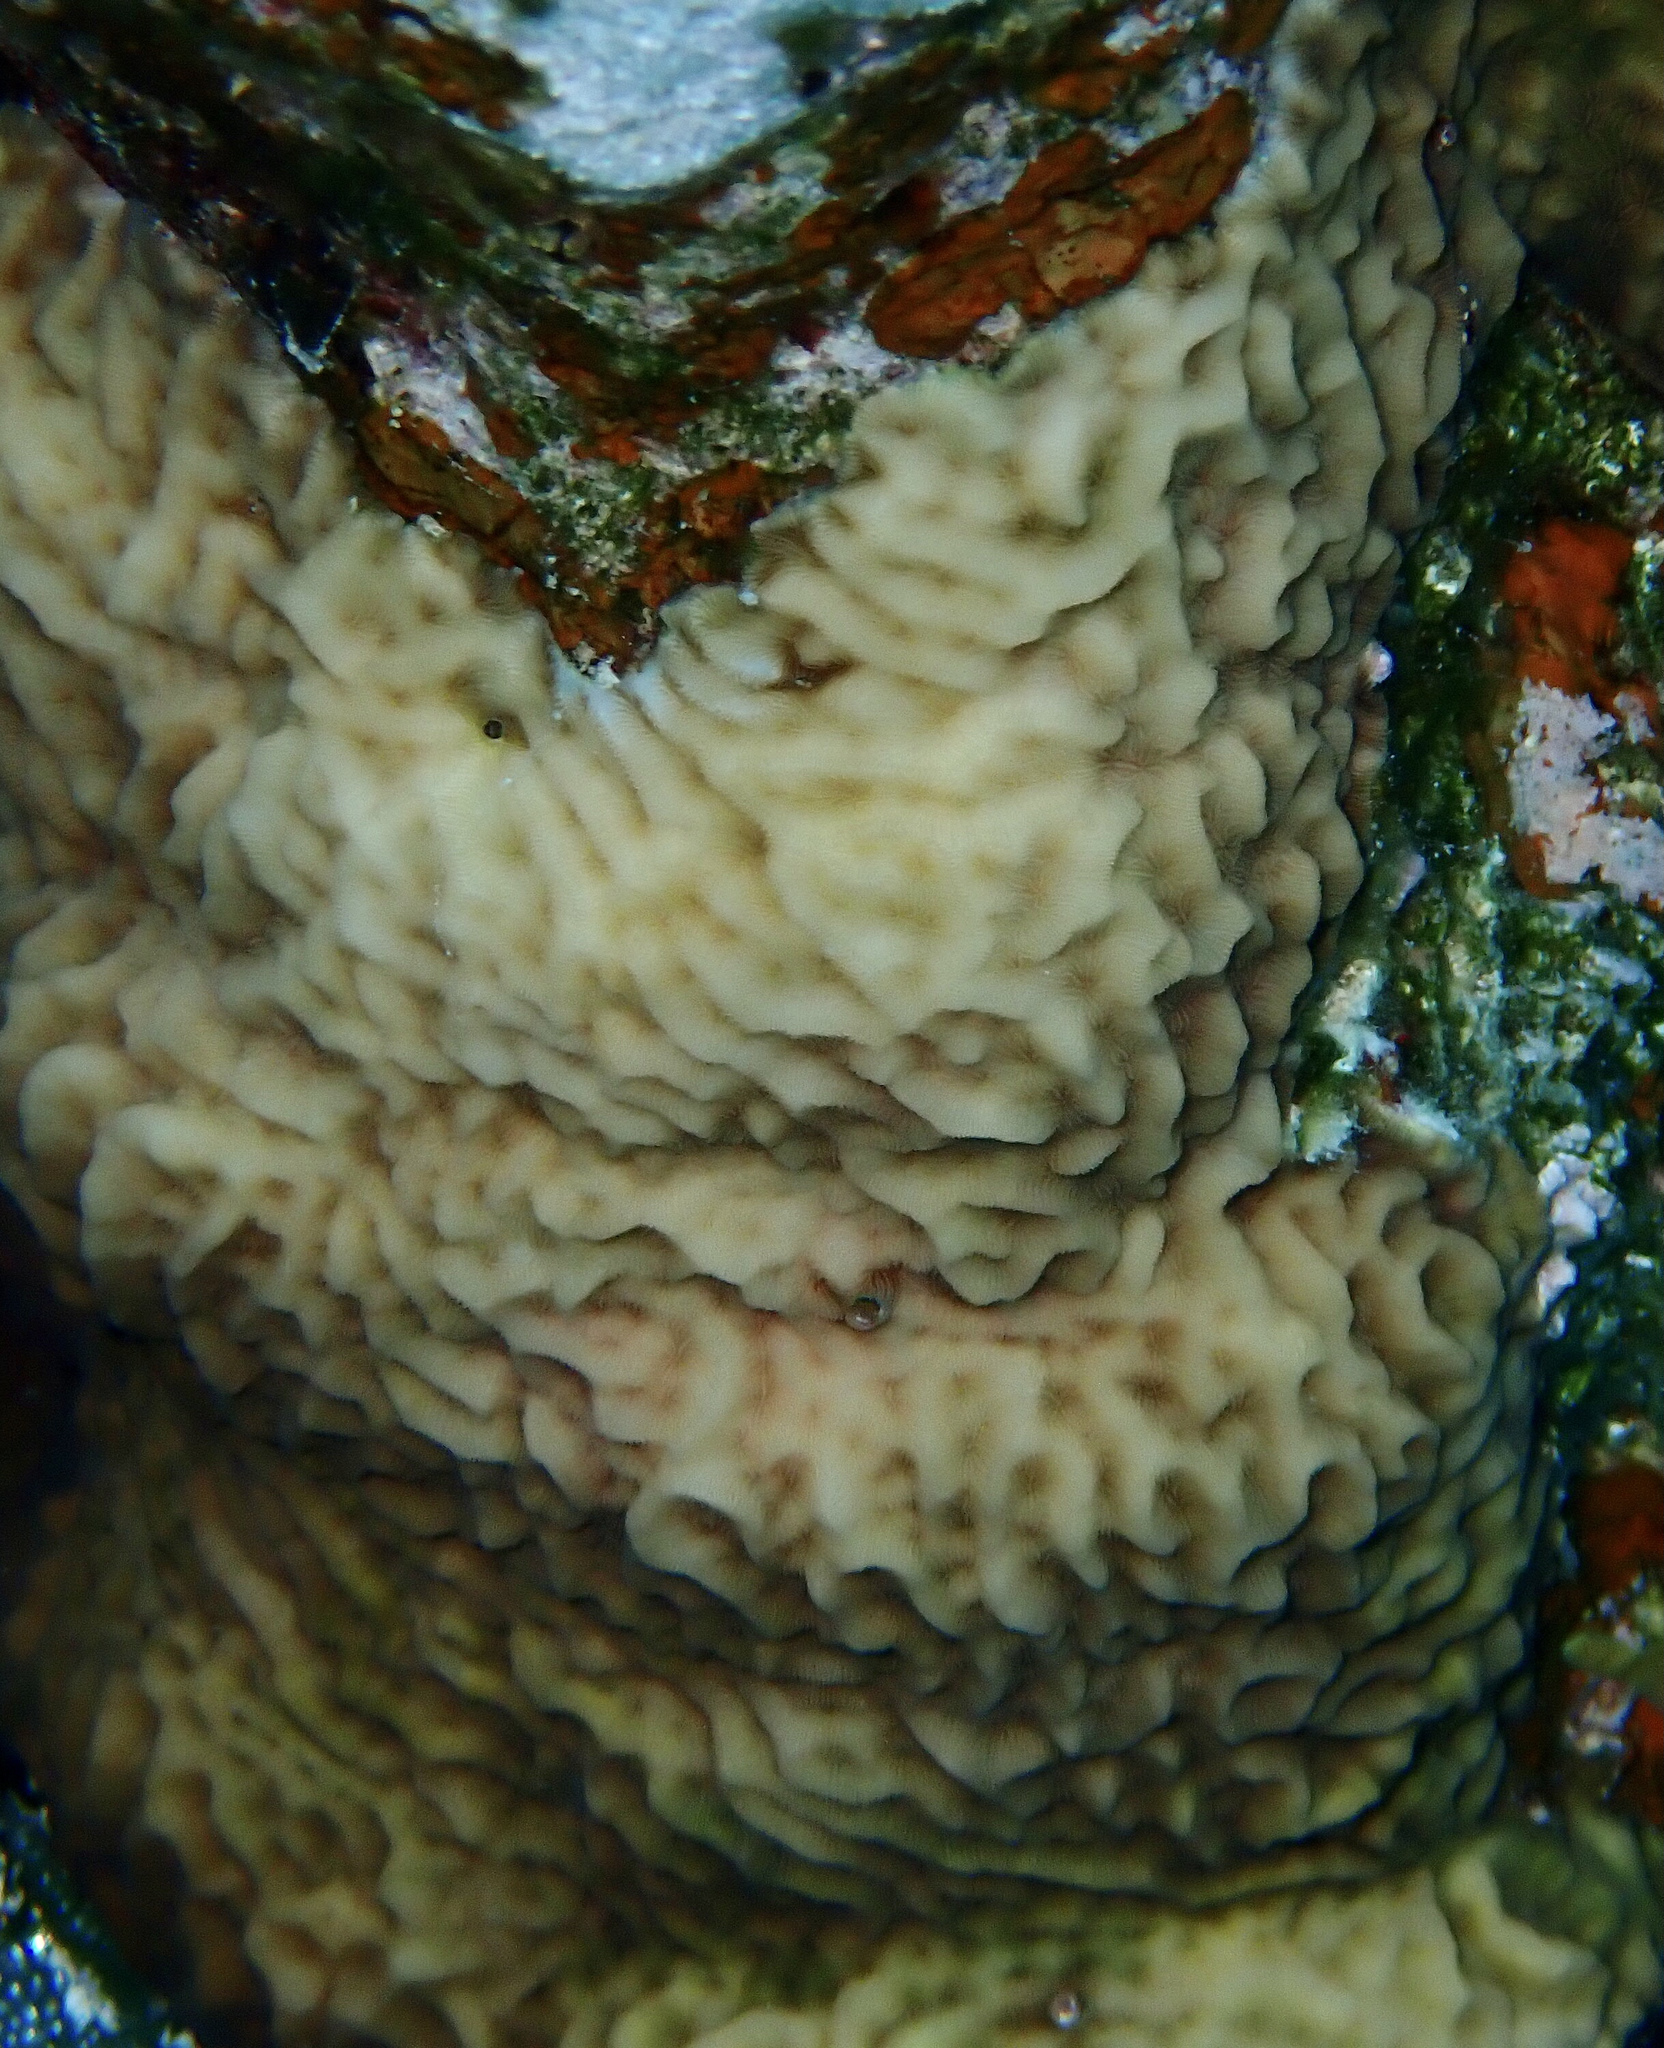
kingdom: Animalia
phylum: Cnidaria
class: Anthozoa
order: Scleractinia
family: Agariciidae
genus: Pavona
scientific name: Pavona varians
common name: Leaf coral
